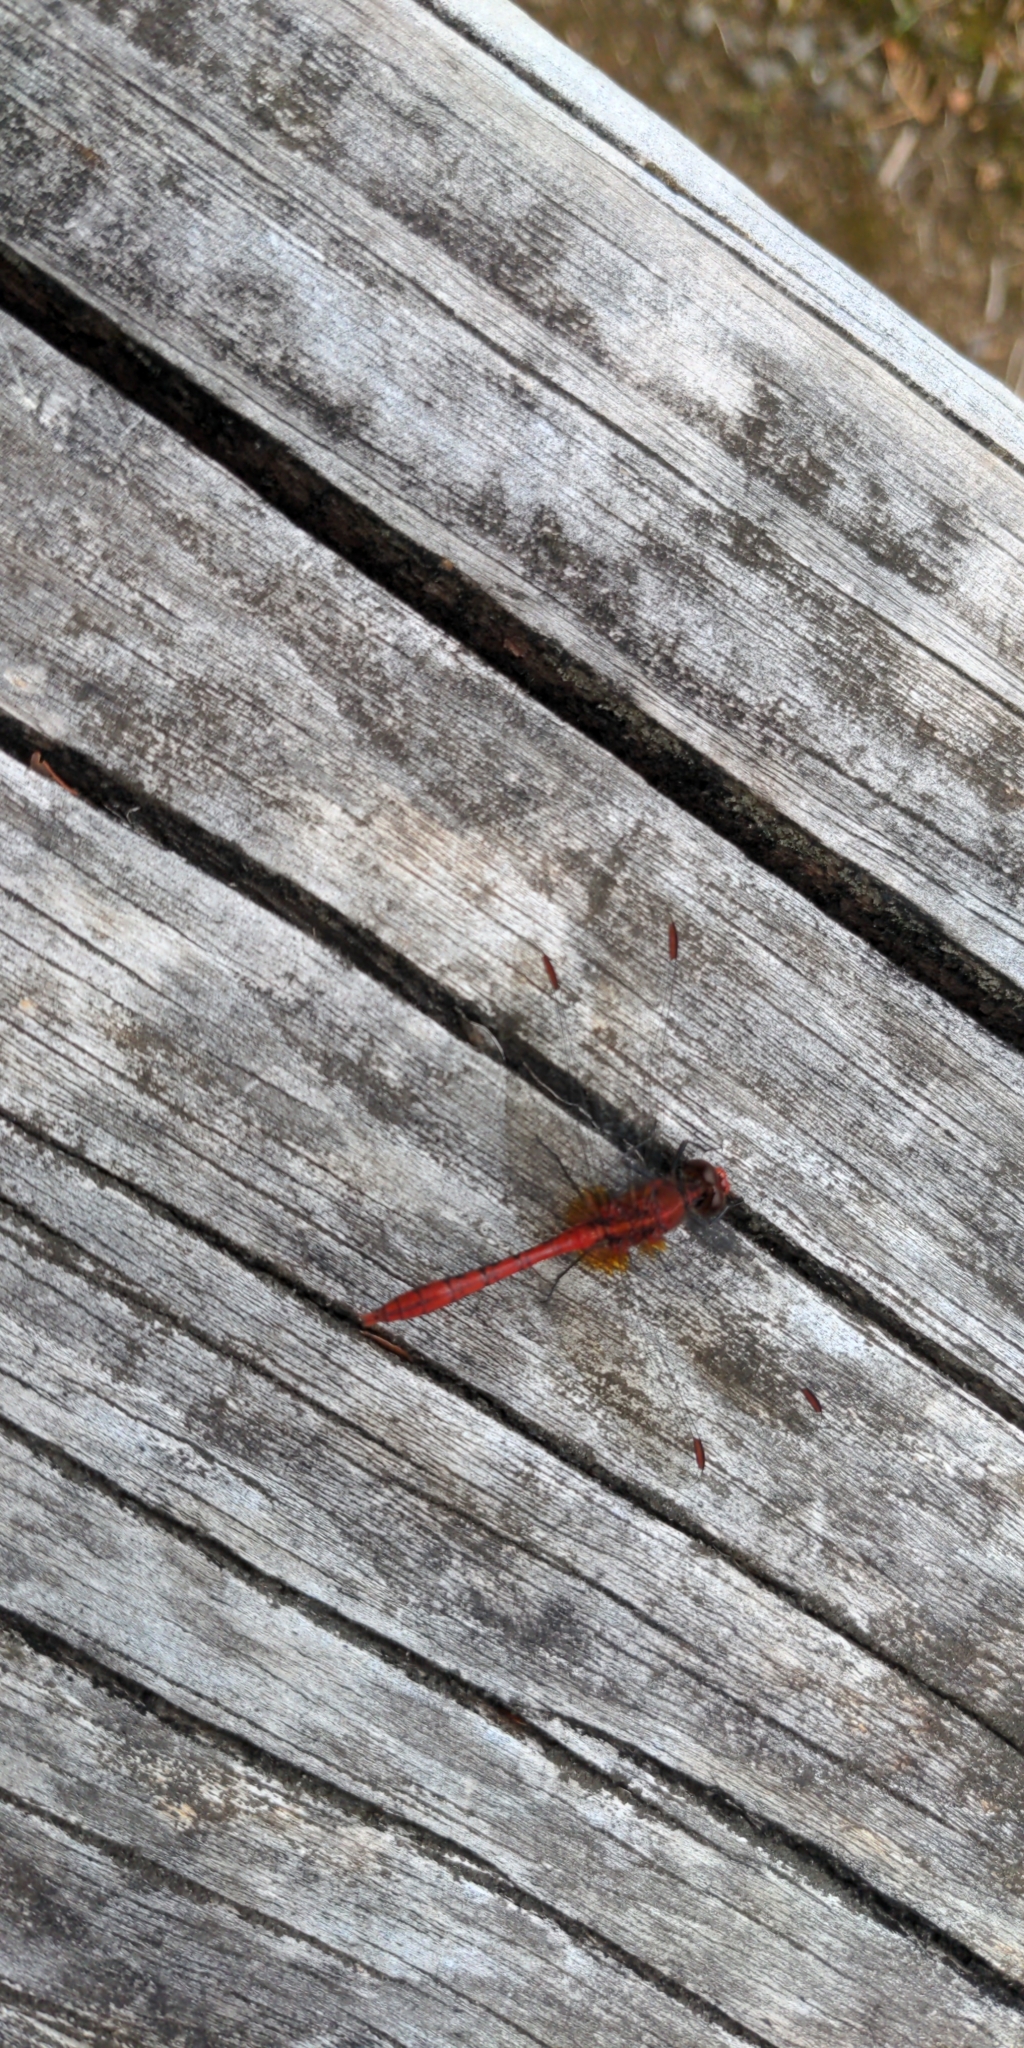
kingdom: Animalia
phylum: Arthropoda
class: Insecta
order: Odonata
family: Libellulidae
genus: Diplacodes
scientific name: Diplacodes bipunctata
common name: Red percher dragonfly
